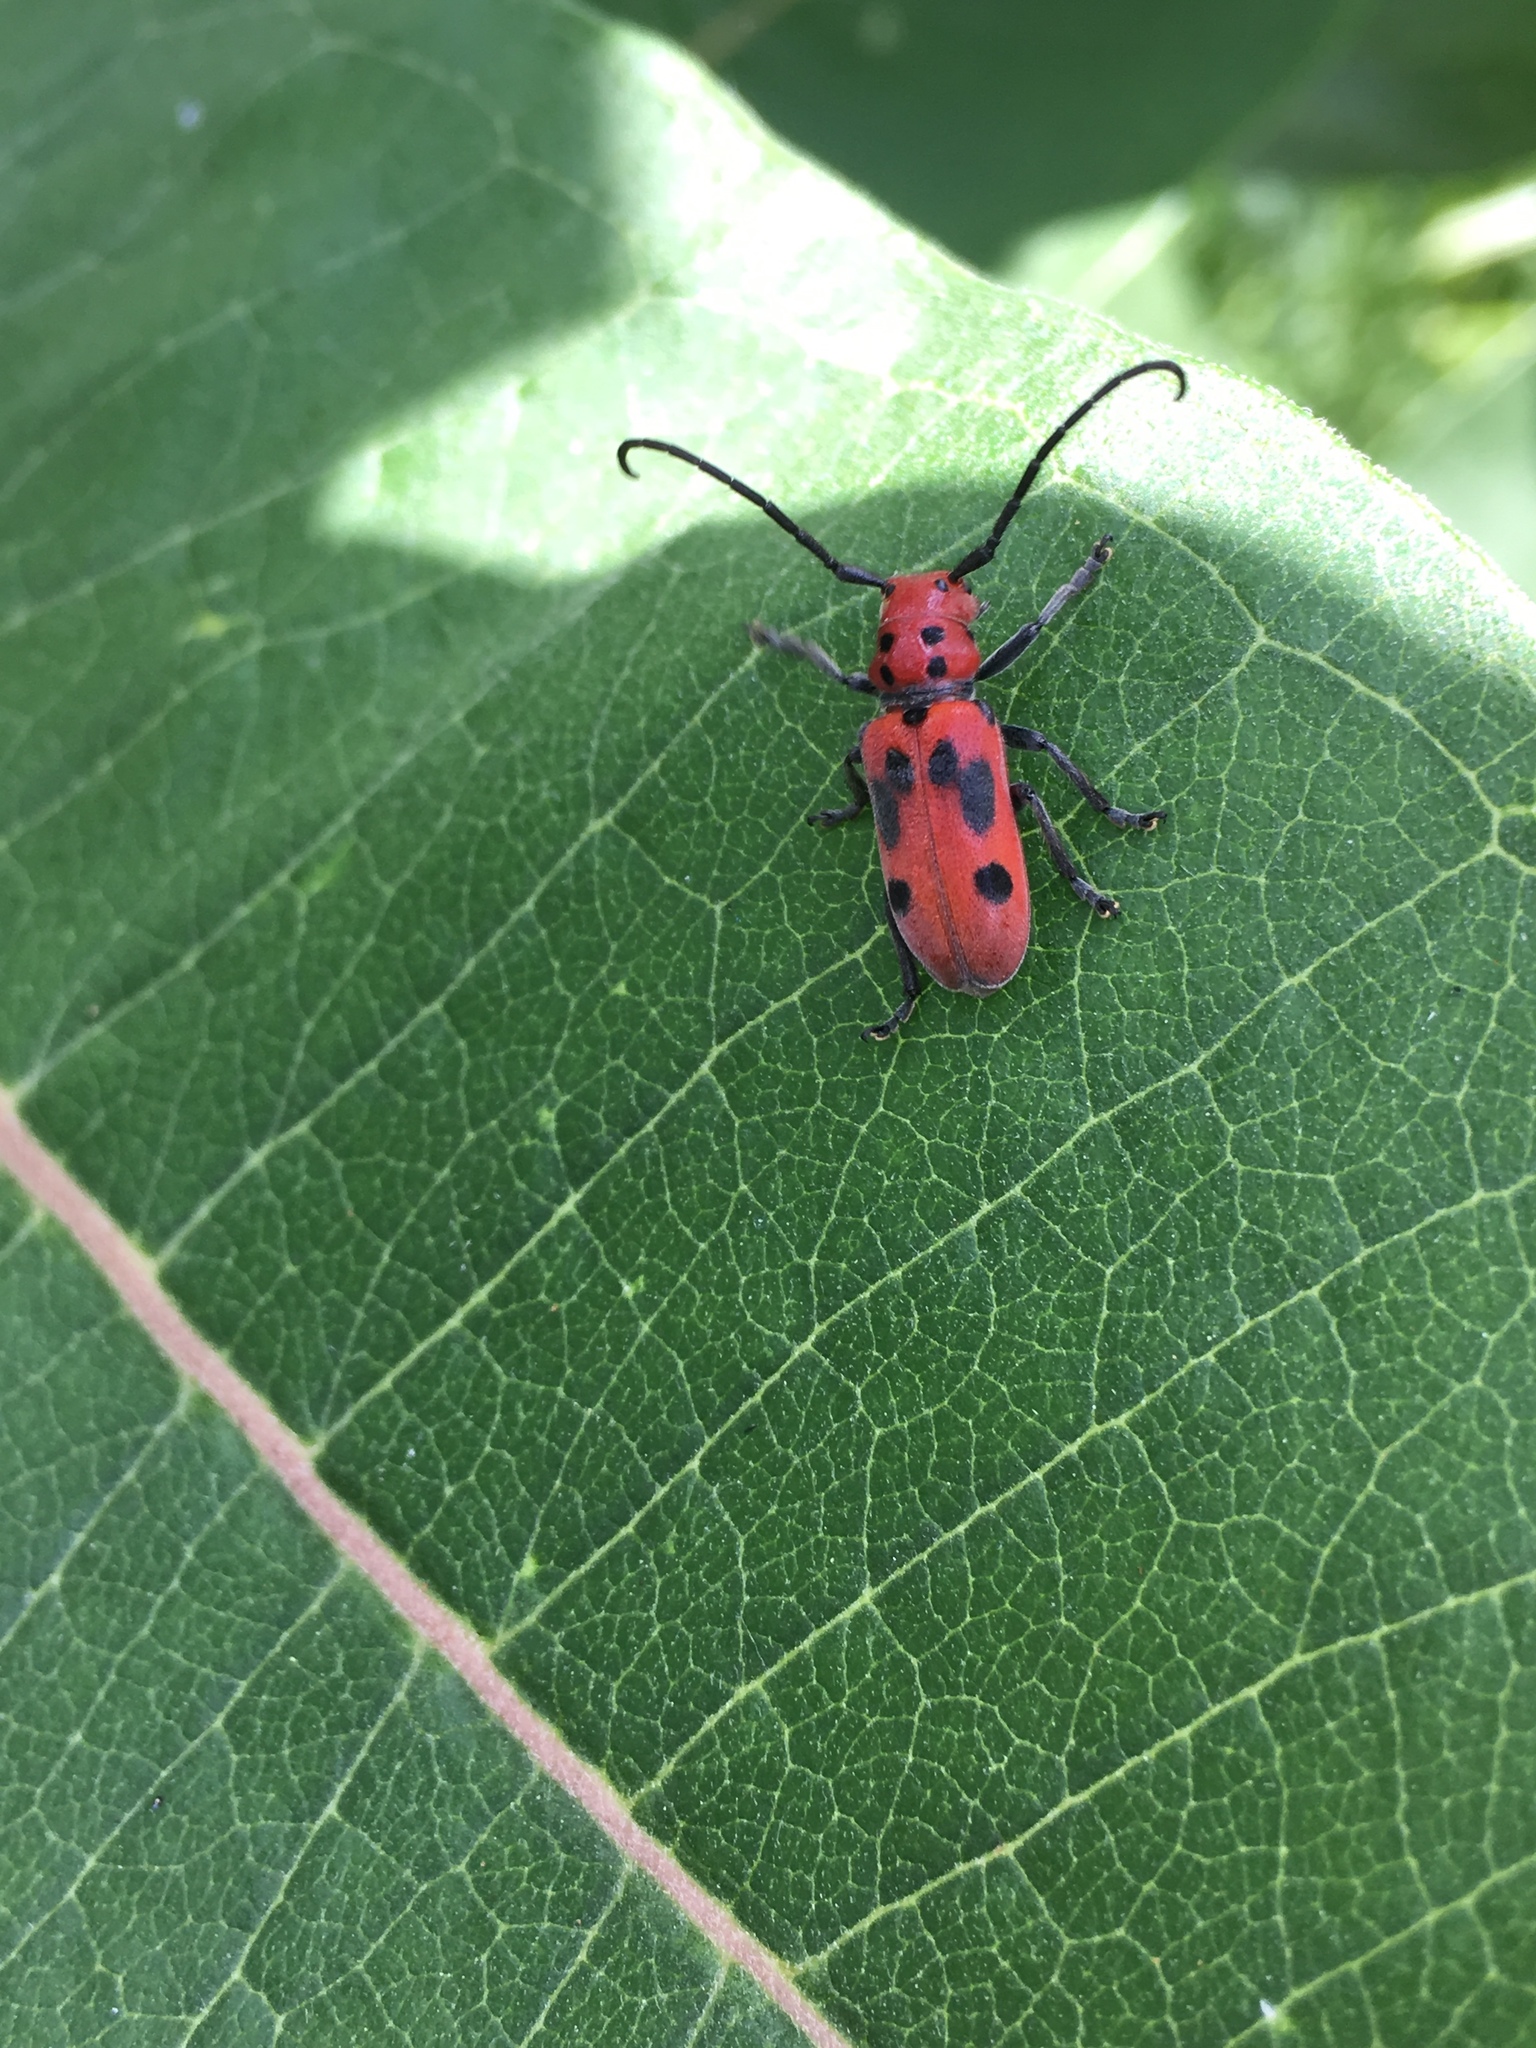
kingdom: Animalia
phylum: Arthropoda
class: Insecta
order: Coleoptera
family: Cerambycidae
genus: Tetraopes
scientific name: Tetraopes tetrophthalmus
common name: Red milkweed beetle
